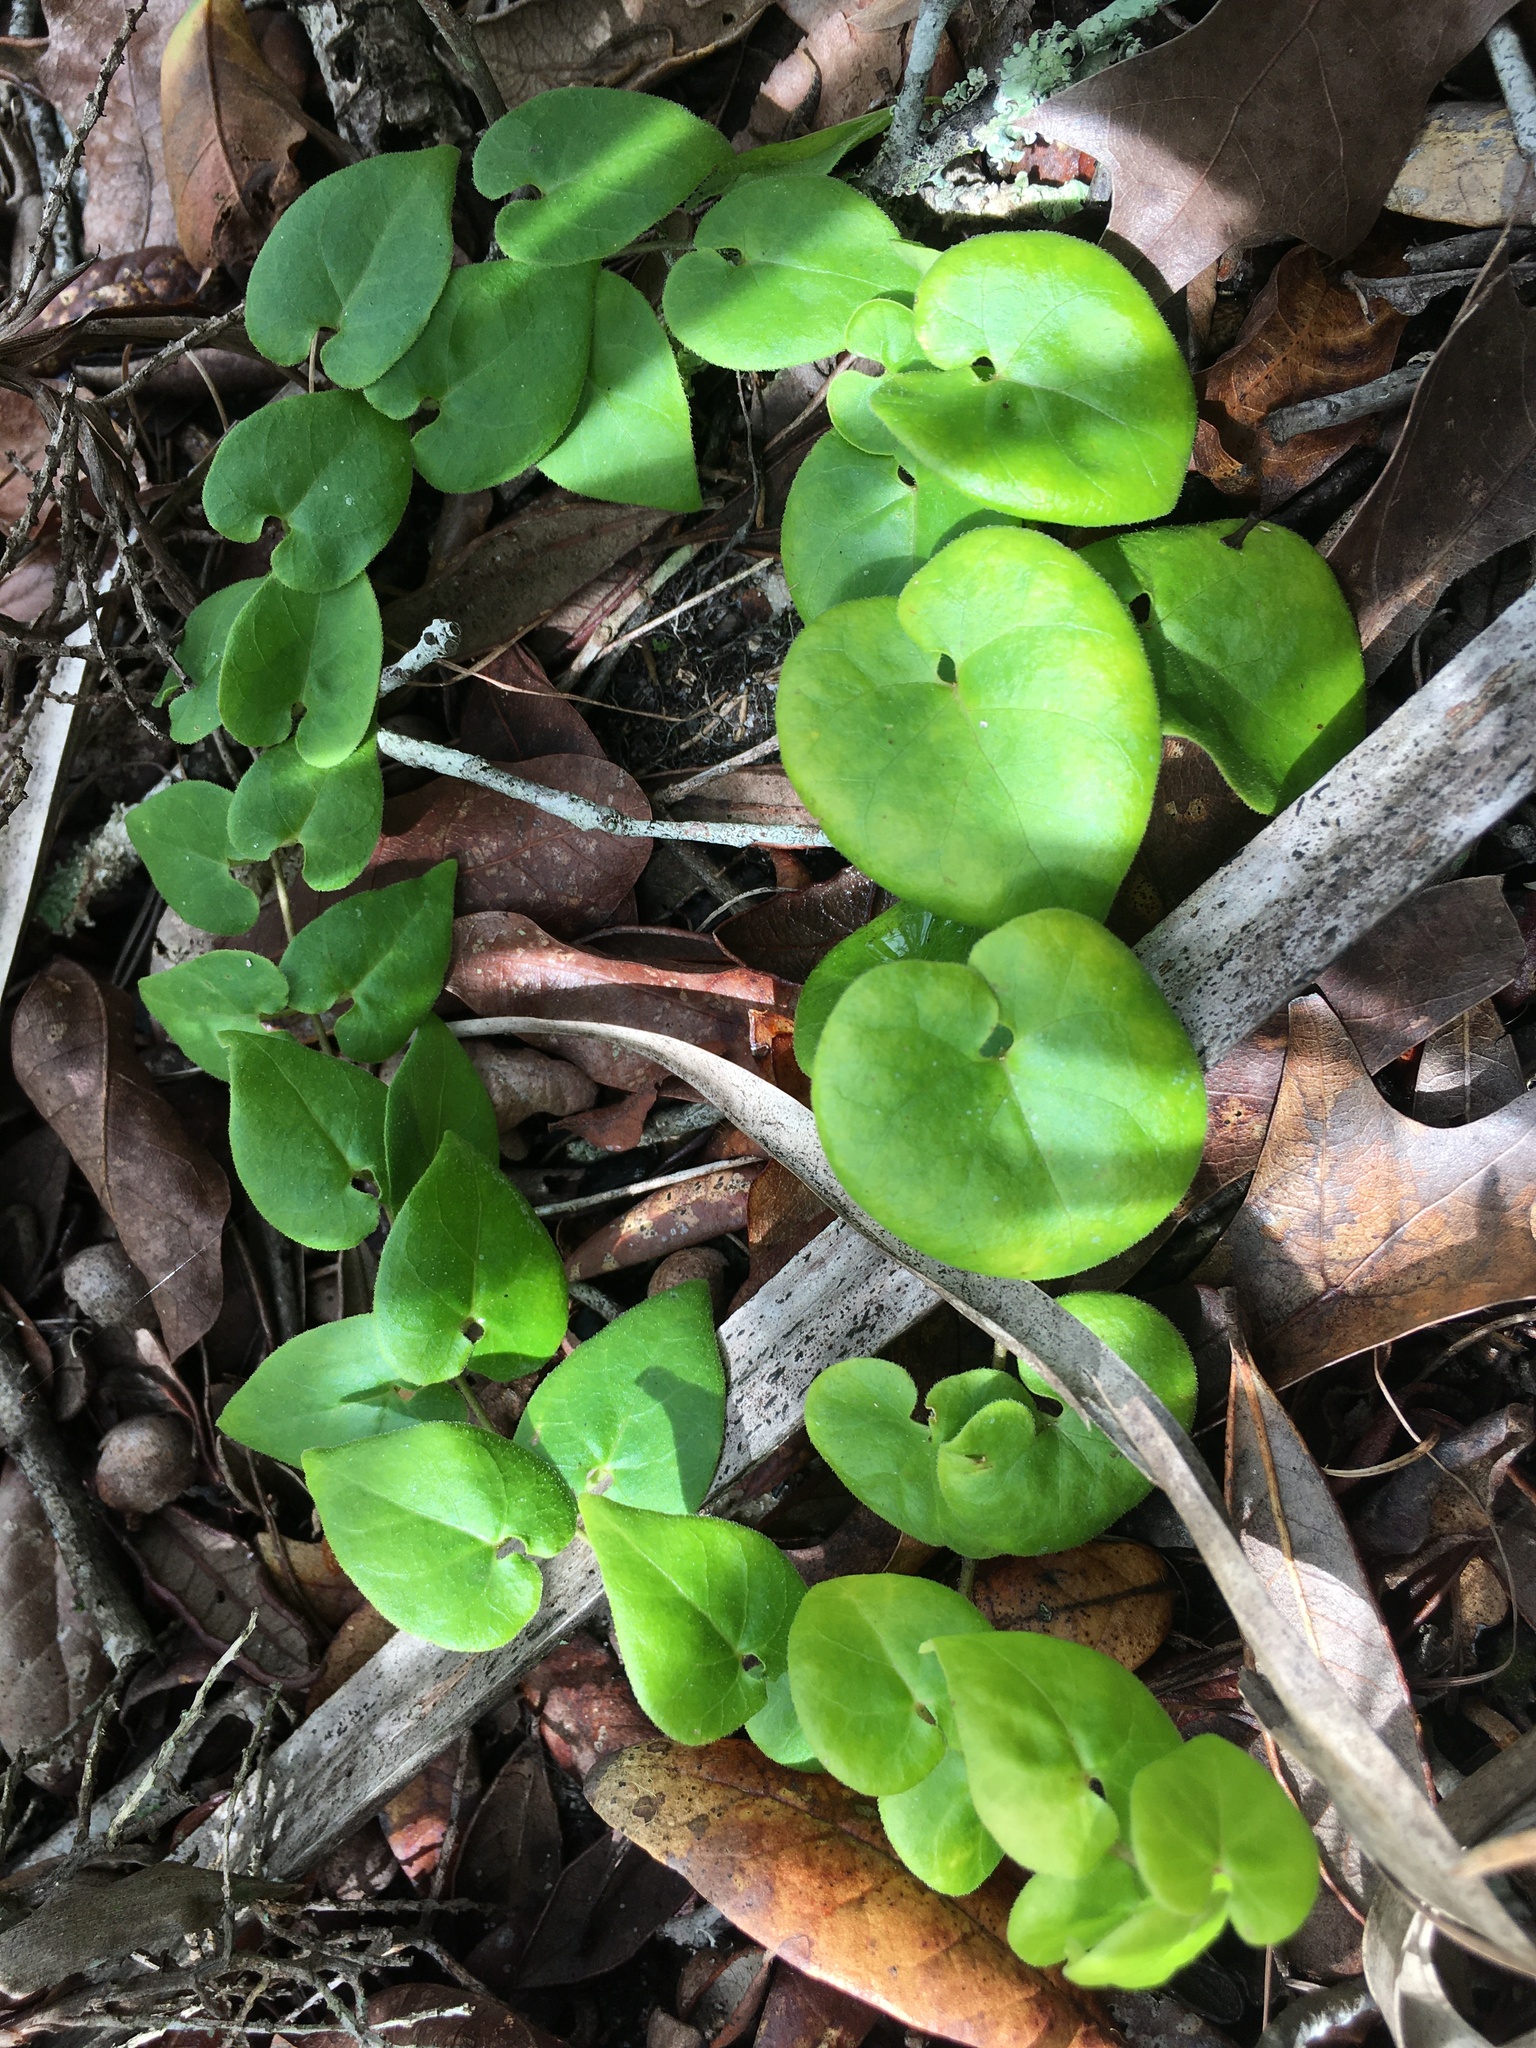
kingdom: Plantae
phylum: Tracheophyta
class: Magnoliopsida
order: Solanales
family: Convolvulaceae
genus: Dichondra
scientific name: Dichondra carolinensis
